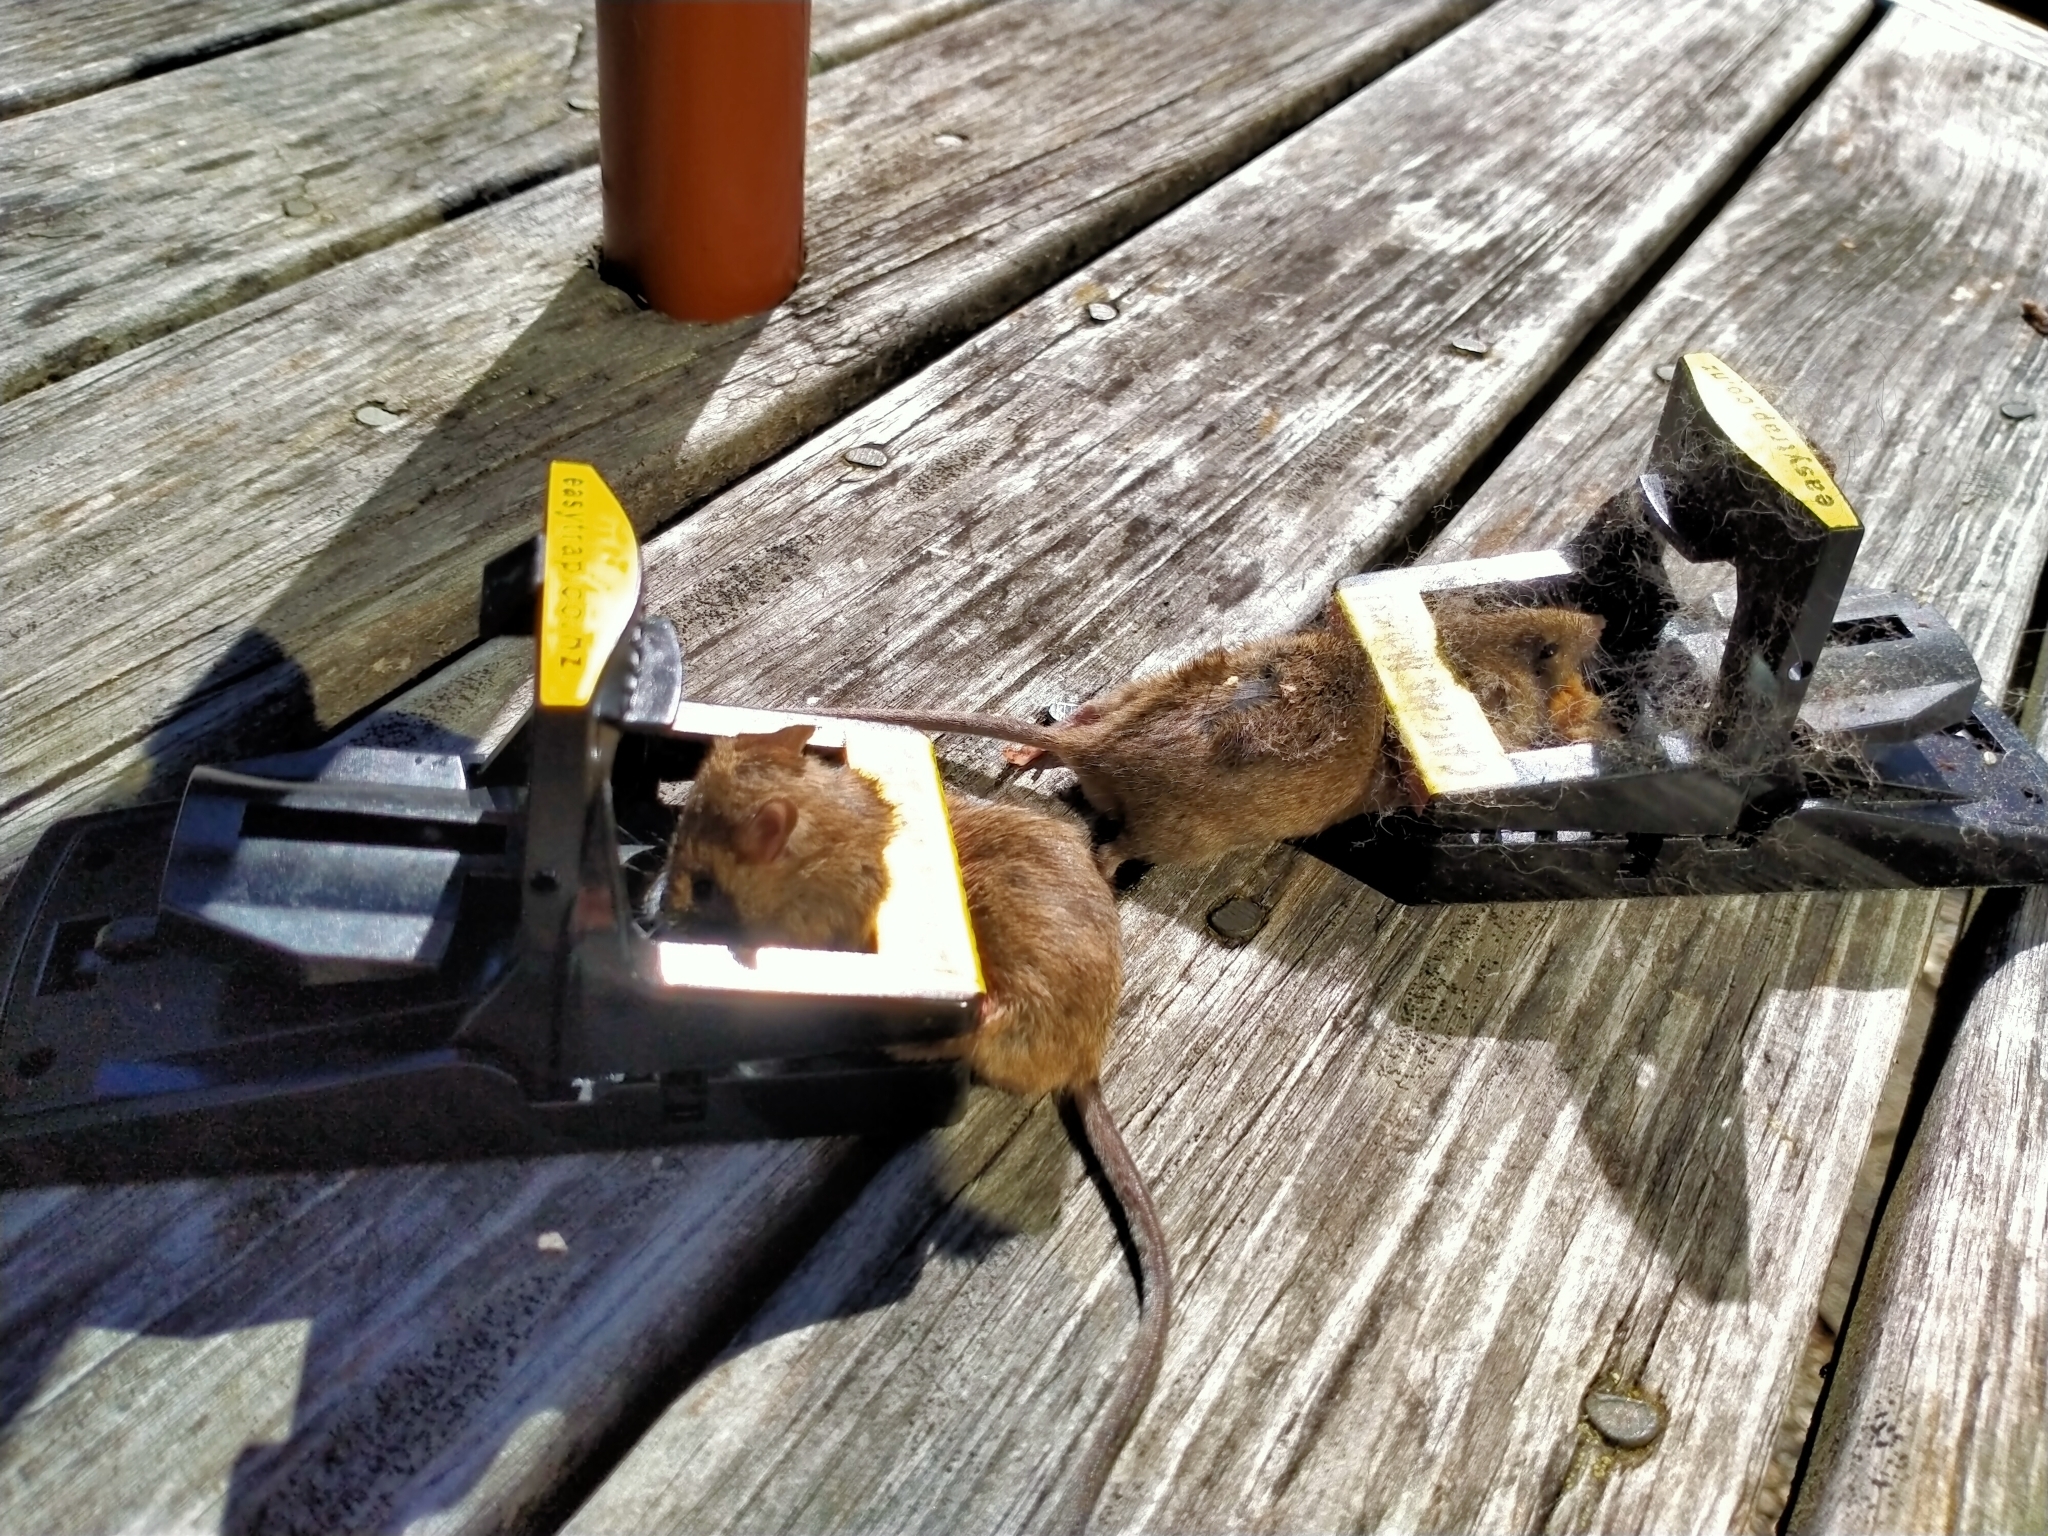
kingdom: Animalia
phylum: Chordata
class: Mammalia
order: Rodentia
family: Muridae
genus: Mus
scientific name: Mus musculus
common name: House mouse
